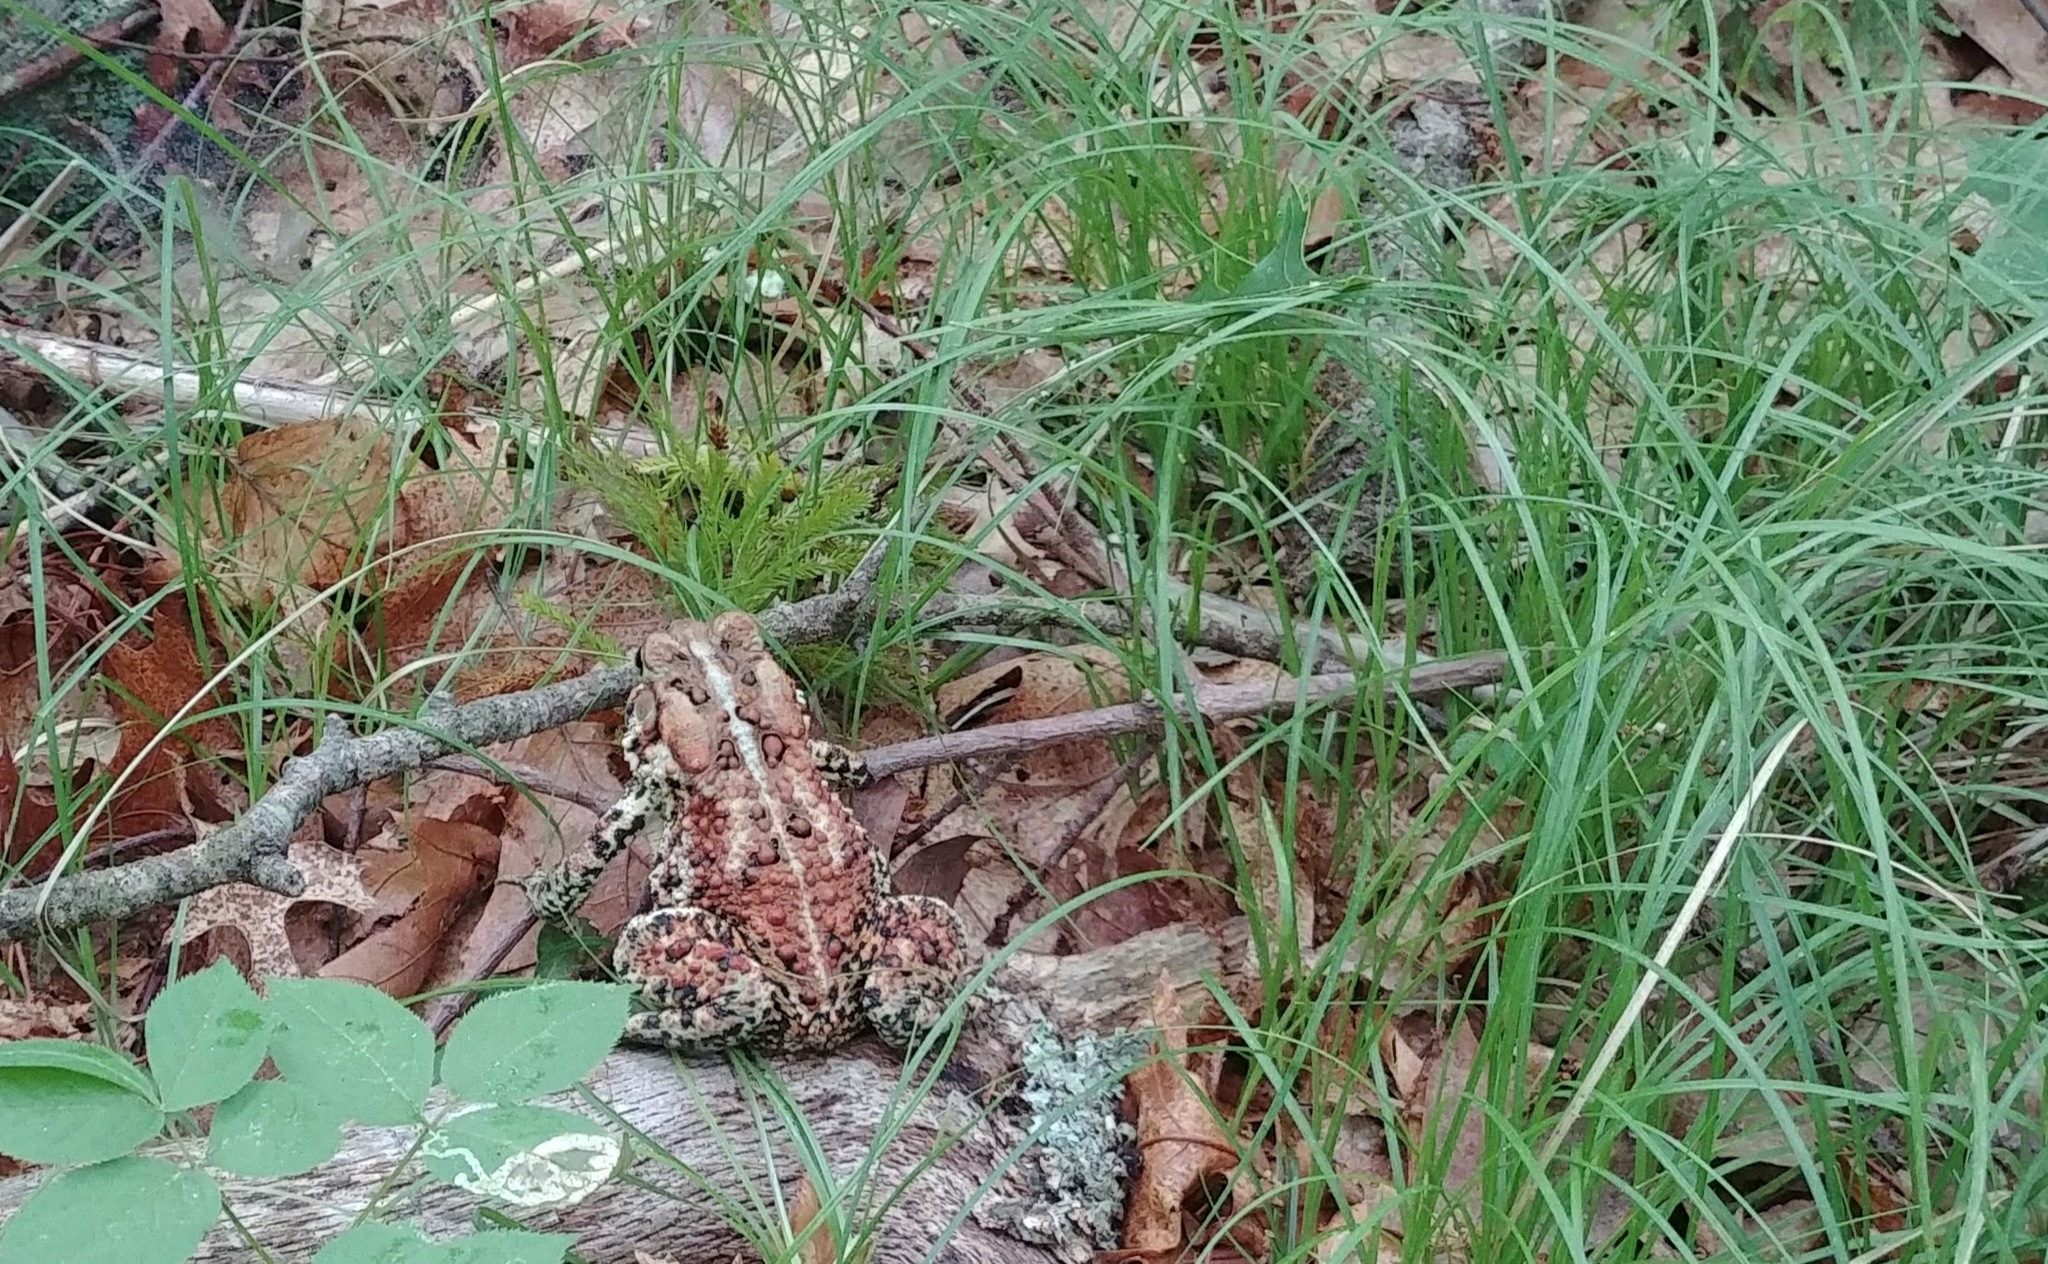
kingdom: Animalia
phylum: Chordata
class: Amphibia
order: Anura
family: Bufonidae
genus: Anaxyrus
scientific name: Anaxyrus americanus
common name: American toad
